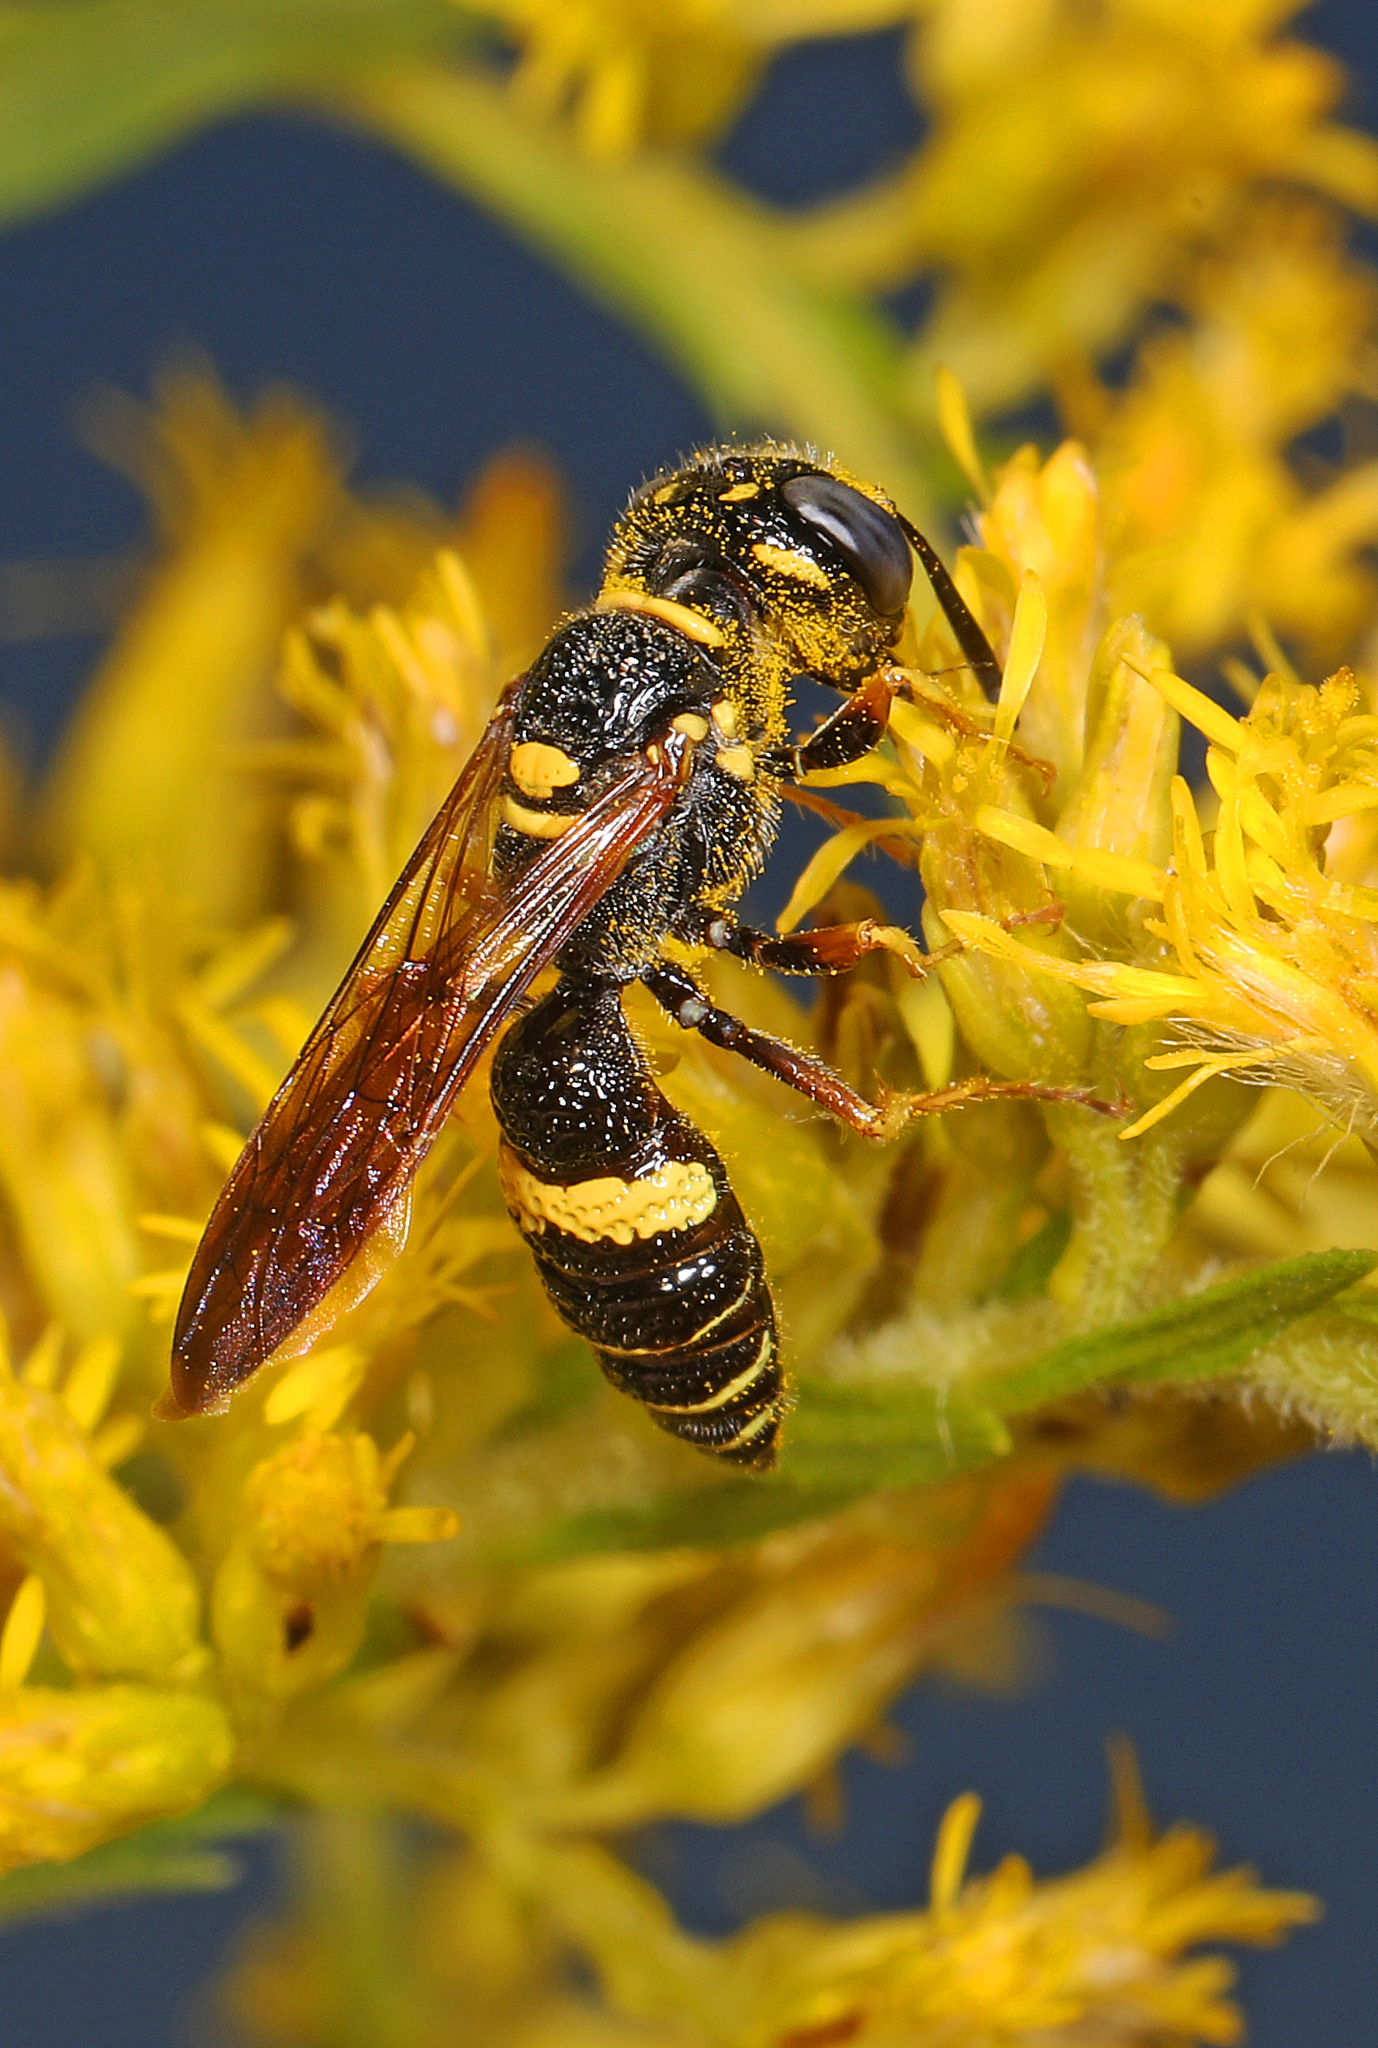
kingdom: Animalia
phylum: Arthropoda
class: Insecta
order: Hymenoptera
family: Crabronidae
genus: Philanthus
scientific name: Philanthus gibbosus
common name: Humped beewolf
